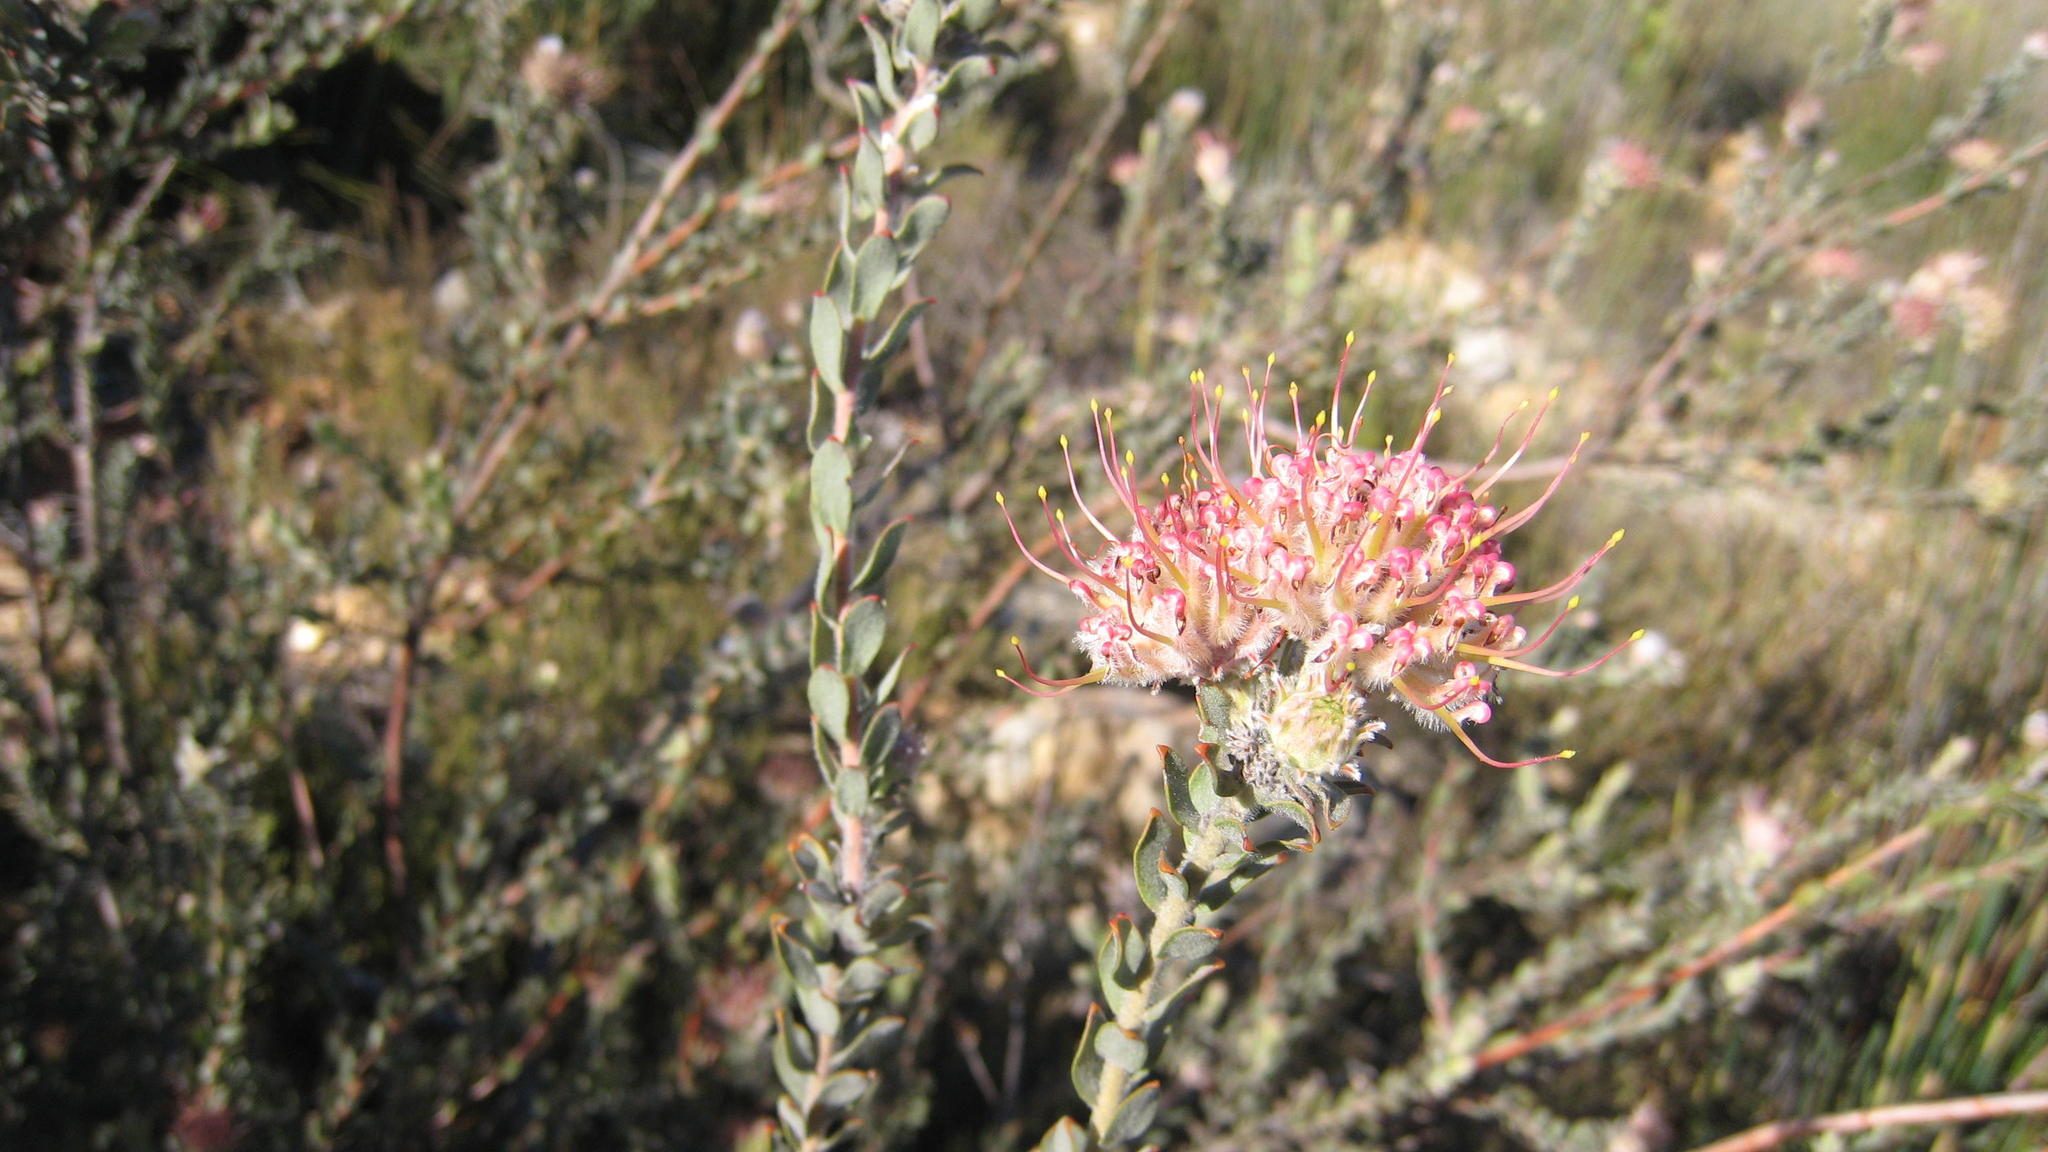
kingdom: Plantae
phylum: Tracheophyta
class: Magnoliopsida
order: Proteales
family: Proteaceae
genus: Leucospermum
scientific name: Leucospermum calligerum
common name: Arid pincushion
